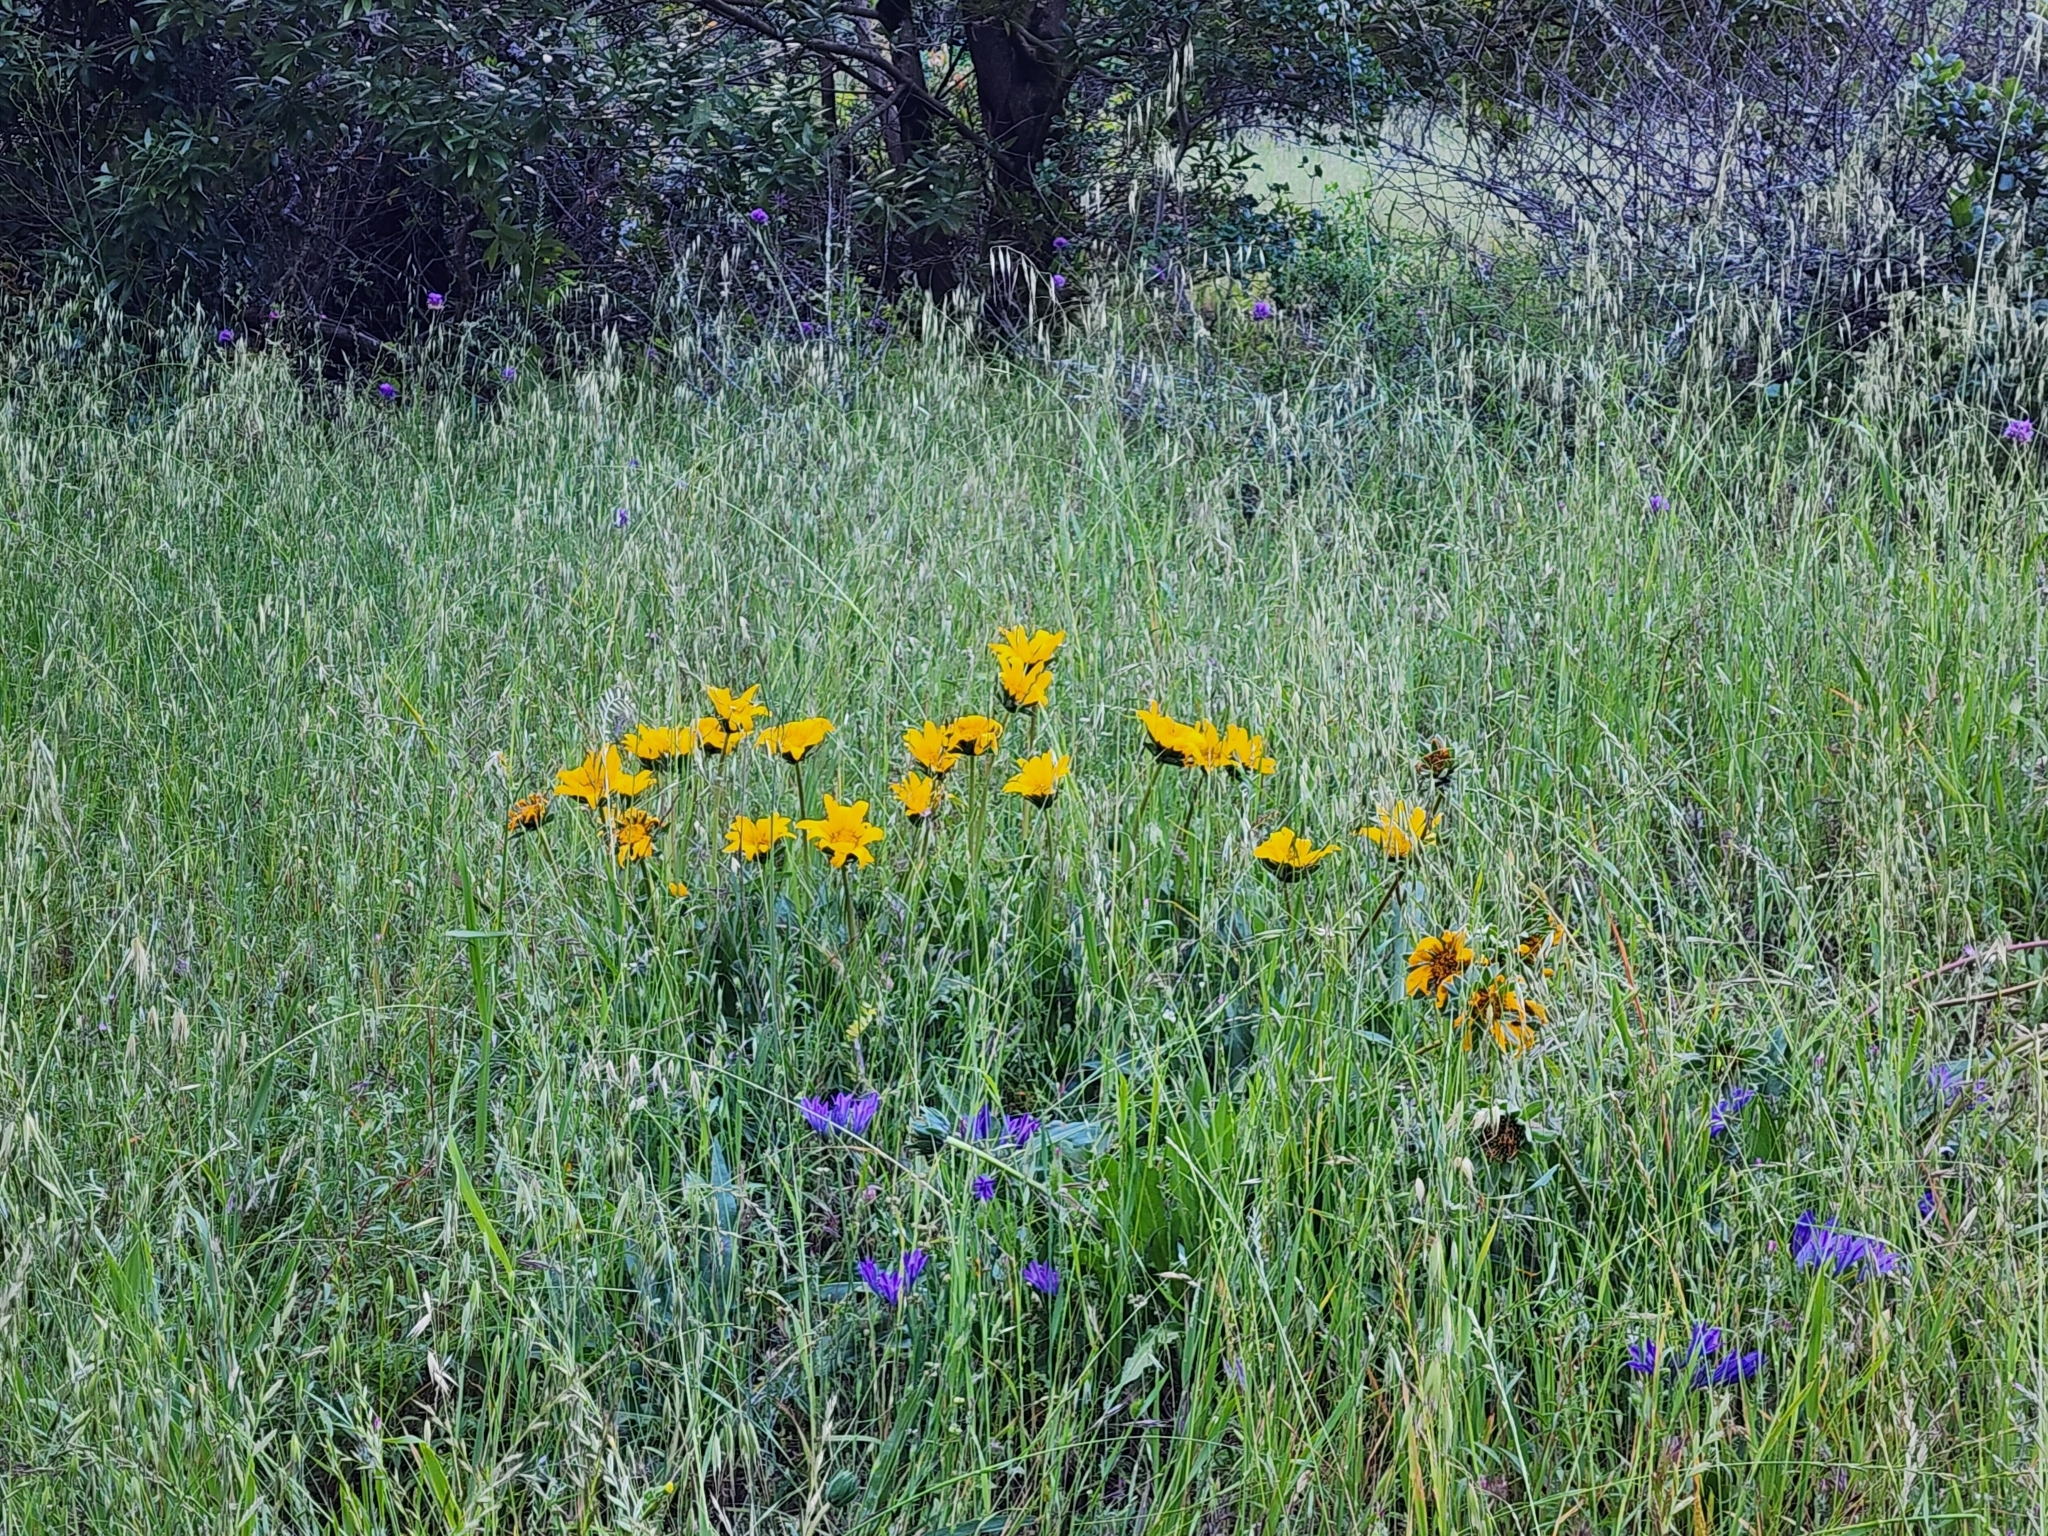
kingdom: Plantae
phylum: Tracheophyta
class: Magnoliopsida
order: Asterales
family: Asteraceae
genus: Wyethia
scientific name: Wyethia angustifolia
